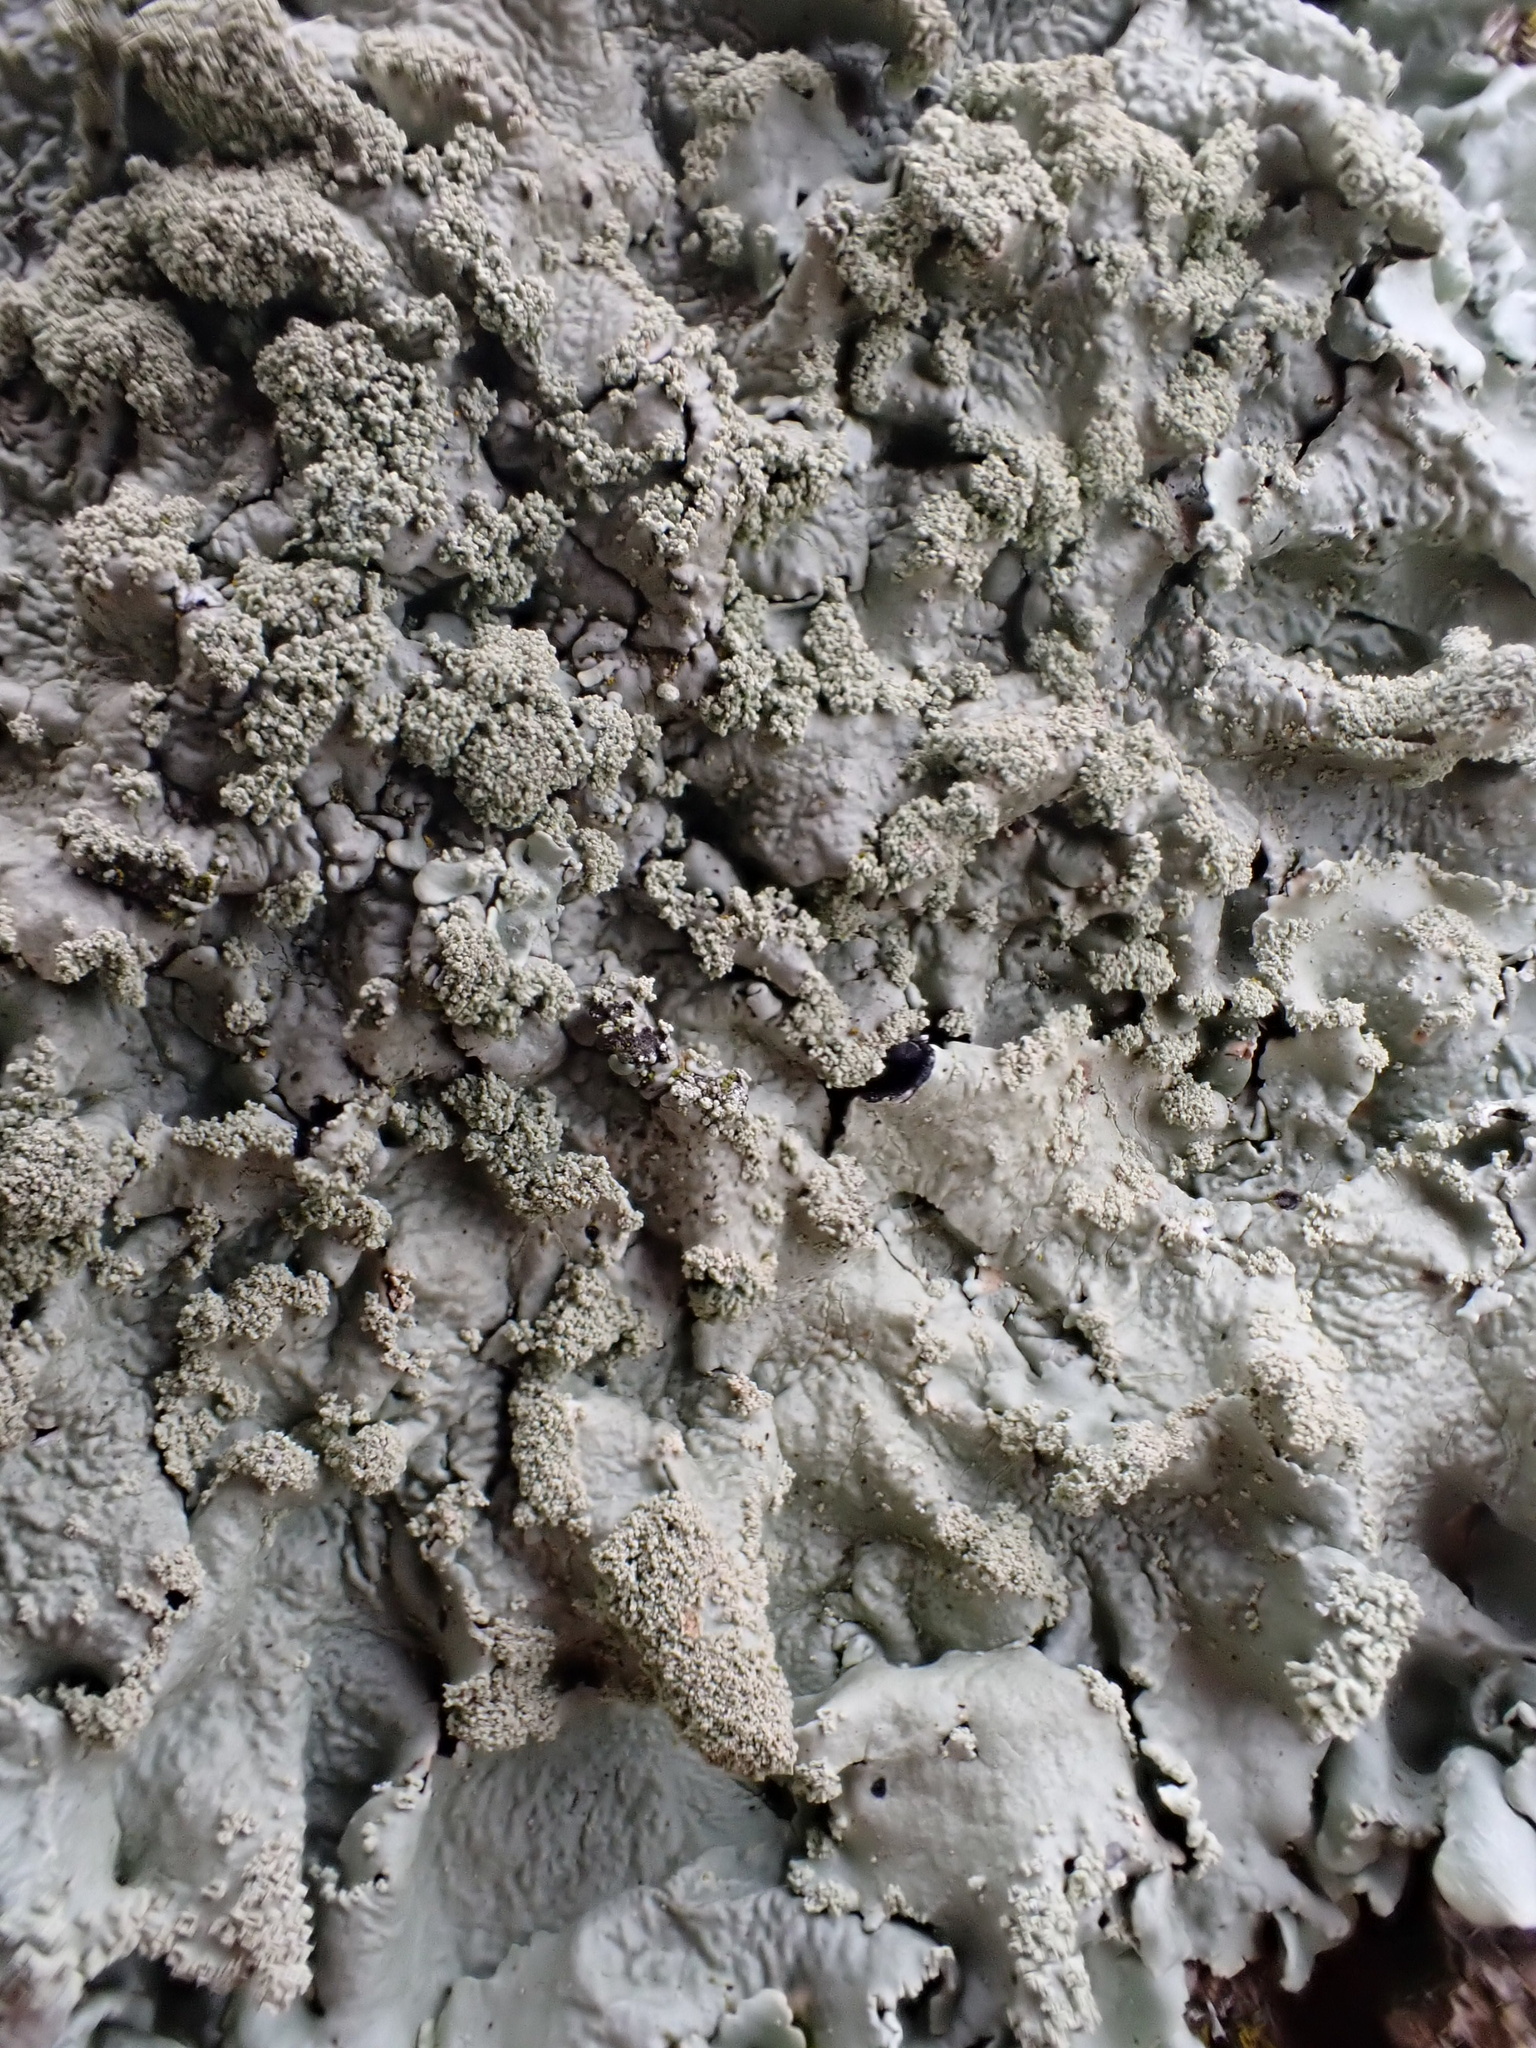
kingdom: Fungi
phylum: Ascomycota
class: Lecanoromycetes
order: Lecanorales
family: Parmeliaceae
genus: Flavoparmelia
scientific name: Flavoparmelia caperata
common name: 40-mile per hour lichen
